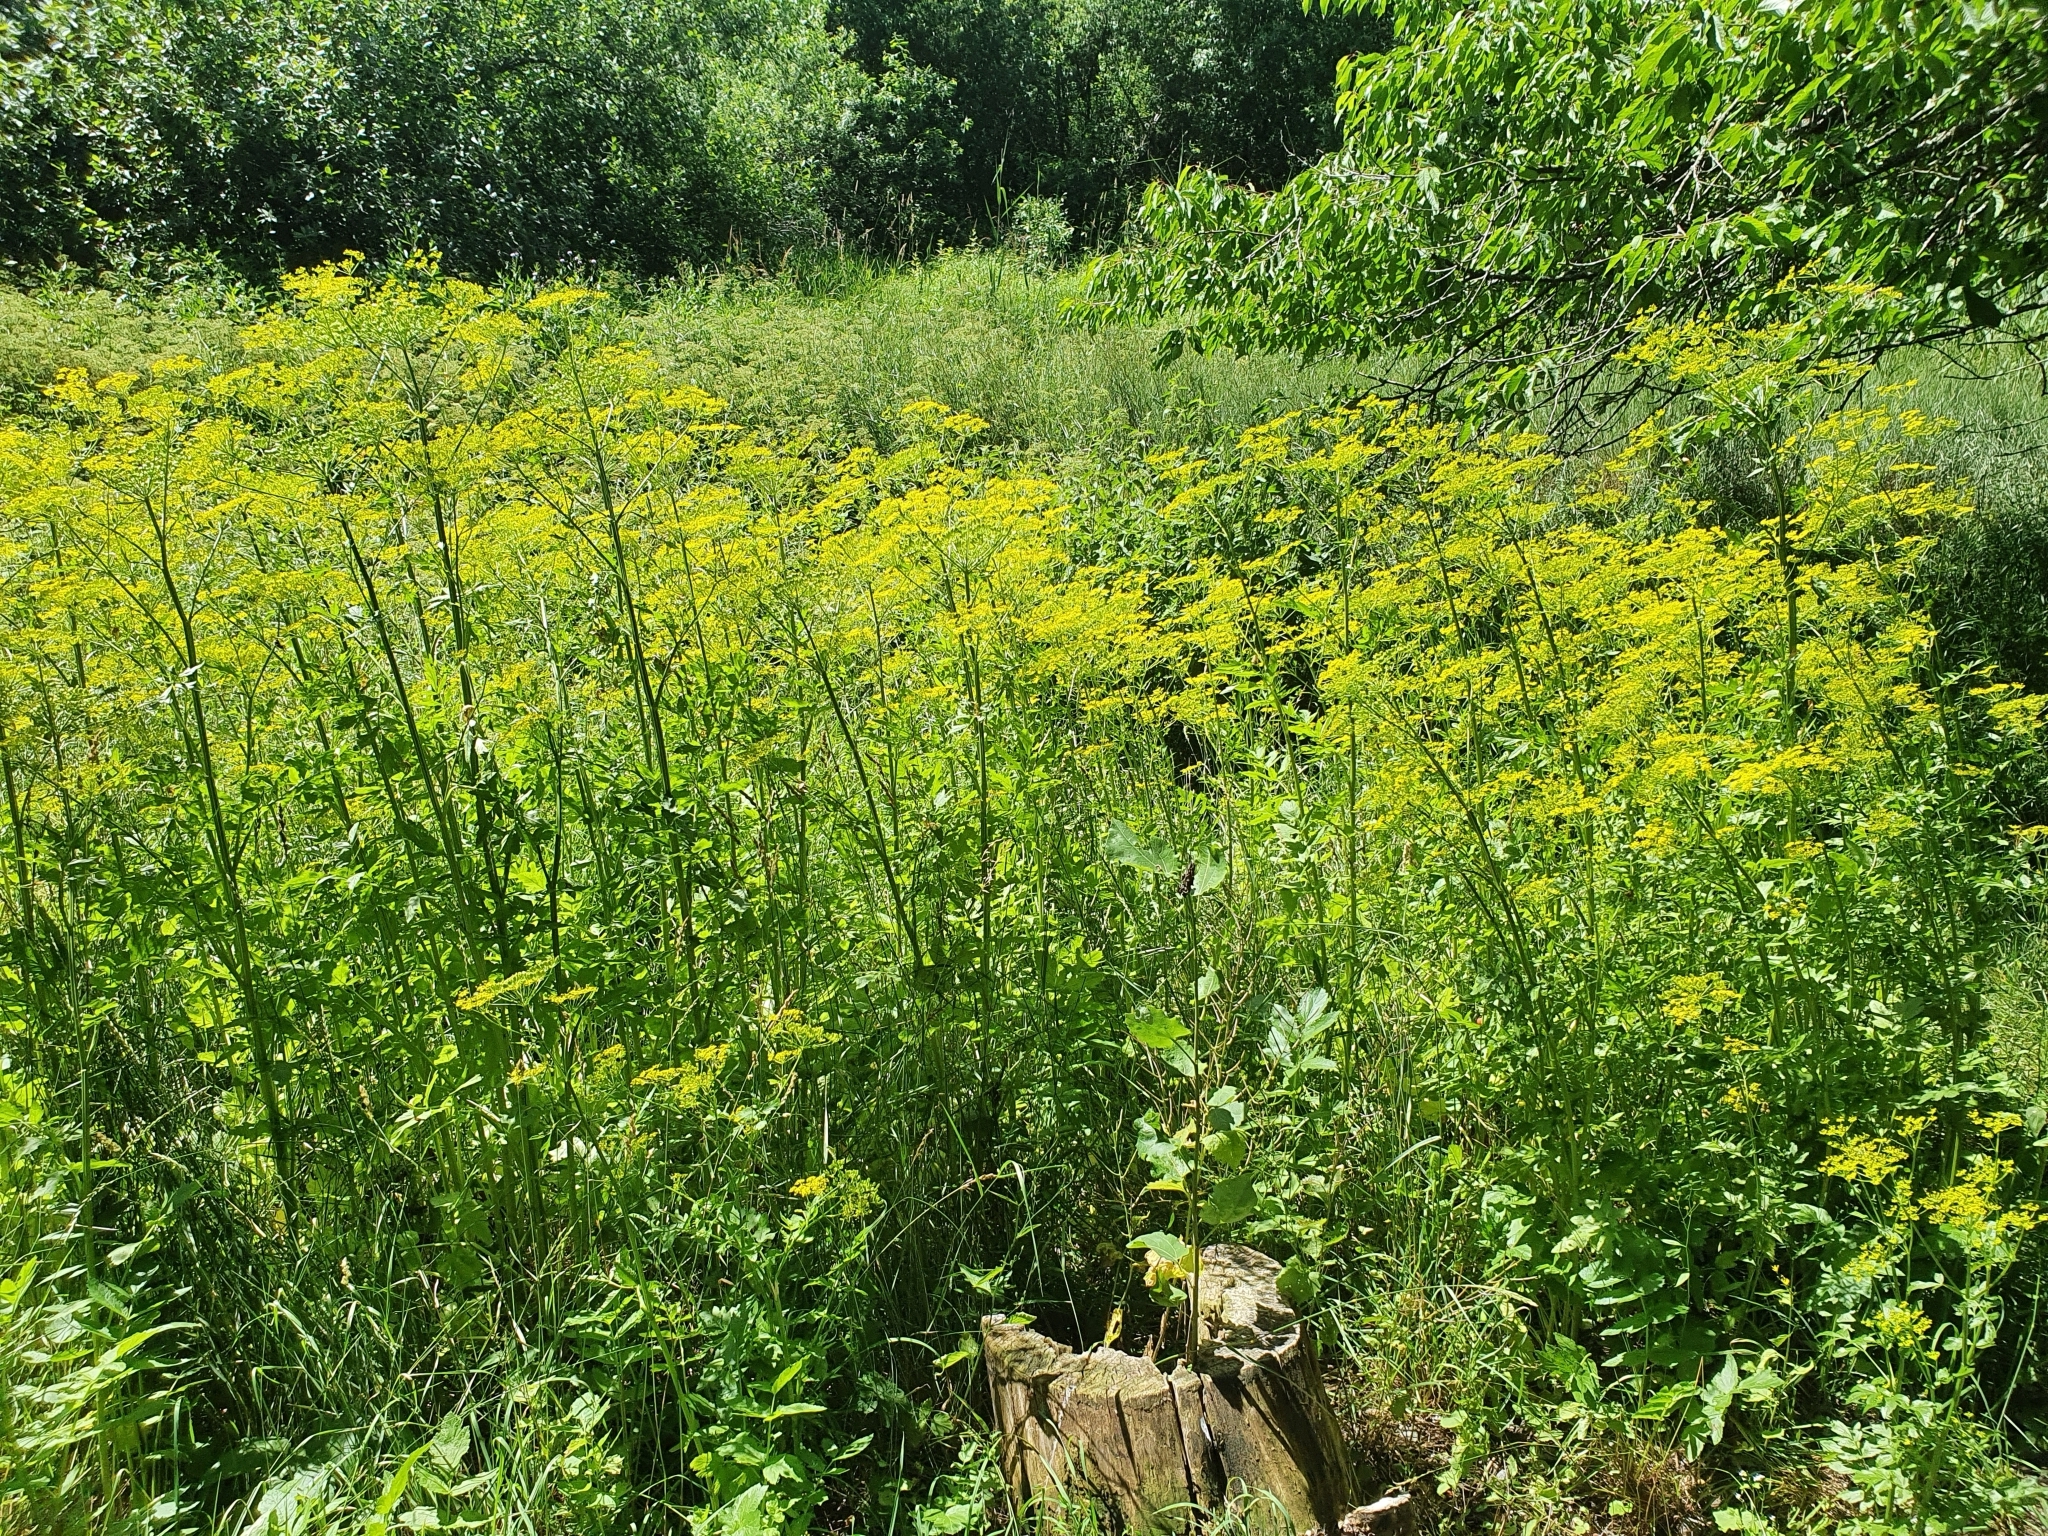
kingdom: Plantae
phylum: Tracheophyta
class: Magnoliopsida
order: Apiales
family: Apiaceae
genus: Pastinaca
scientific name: Pastinaca sativa
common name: Wild parsnip
